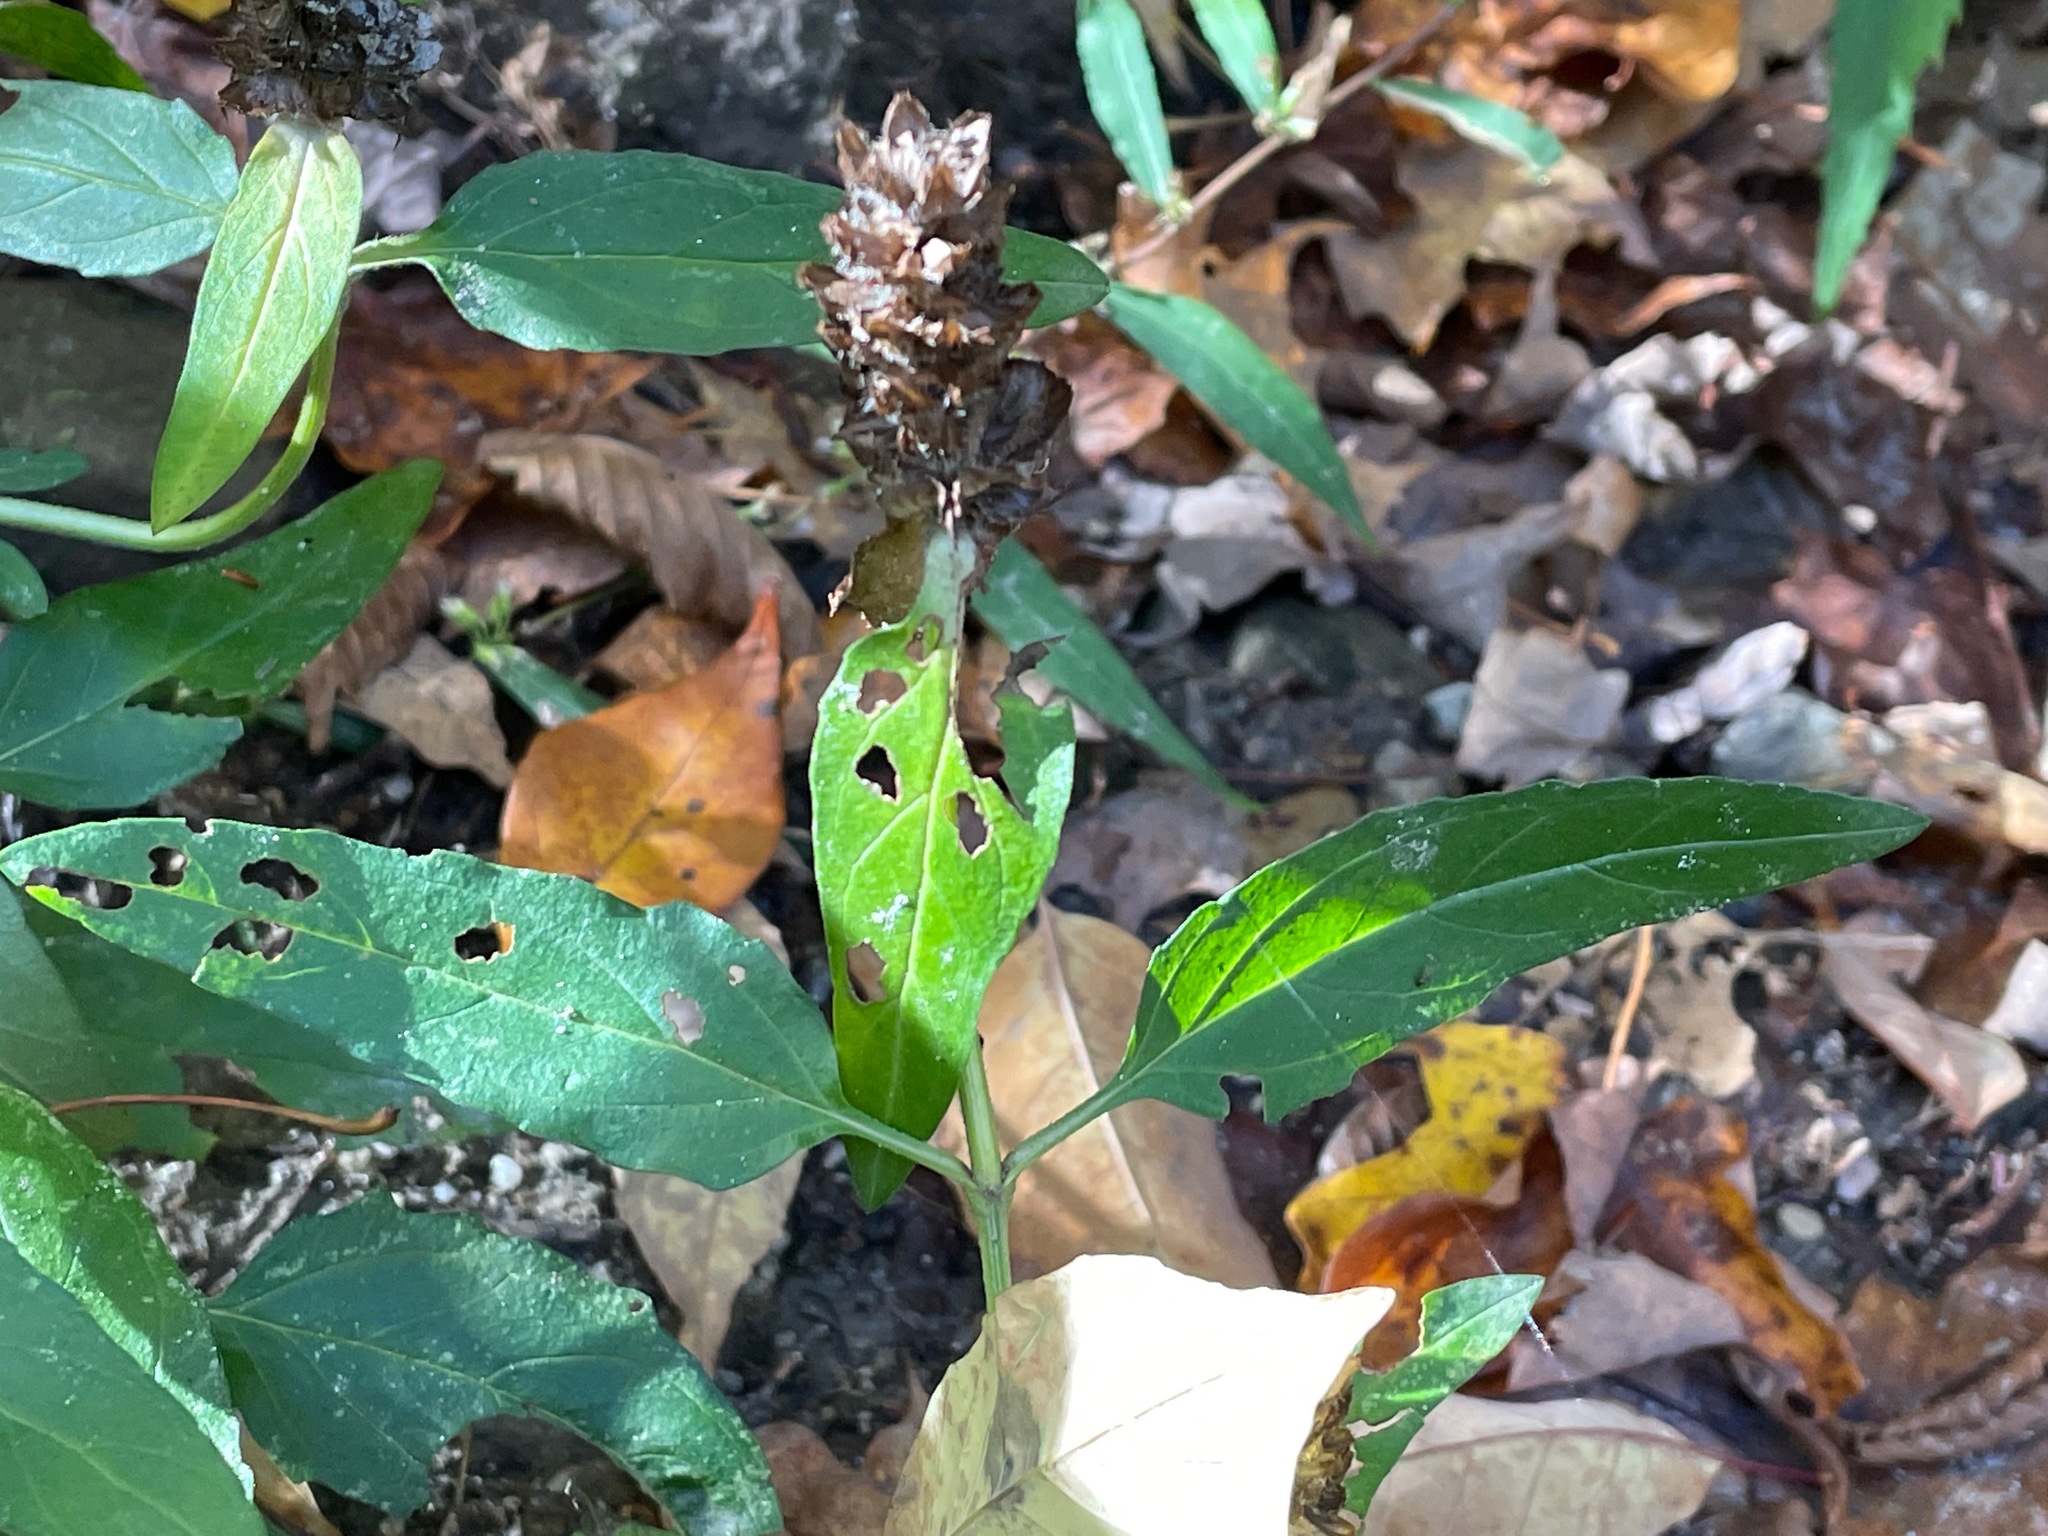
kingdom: Plantae
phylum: Tracheophyta
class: Magnoliopsida
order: Lamiales
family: Lamiaceae
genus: Prunella
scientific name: Prunella vulgaris
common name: Heal-all
